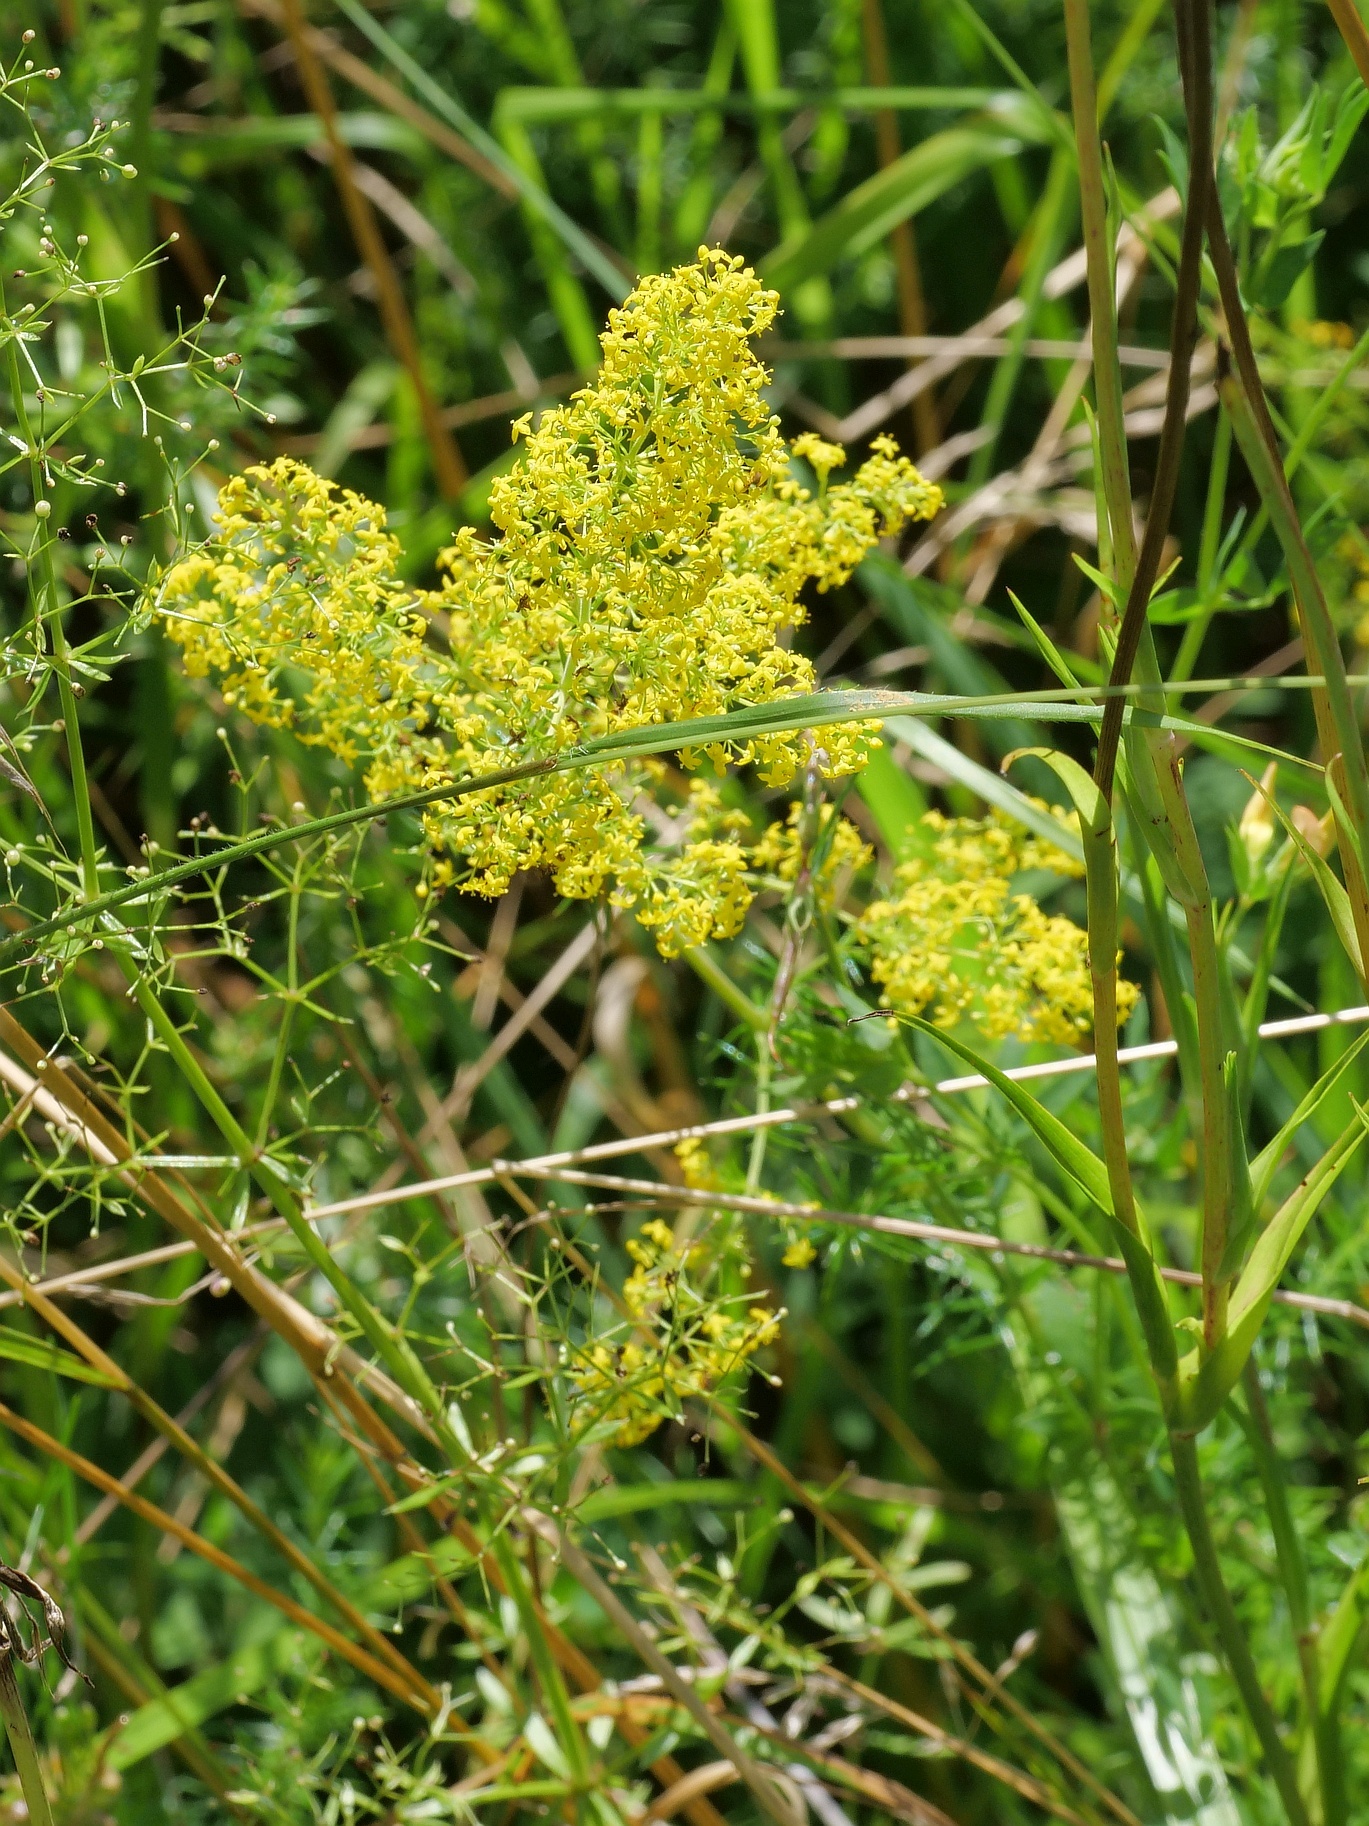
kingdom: Plantae
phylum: Tracheophyta
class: Magnoliopsida
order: Gentianales
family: Rubiaceae
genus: Galium
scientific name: Galium verum
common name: Lady's bedstraw
